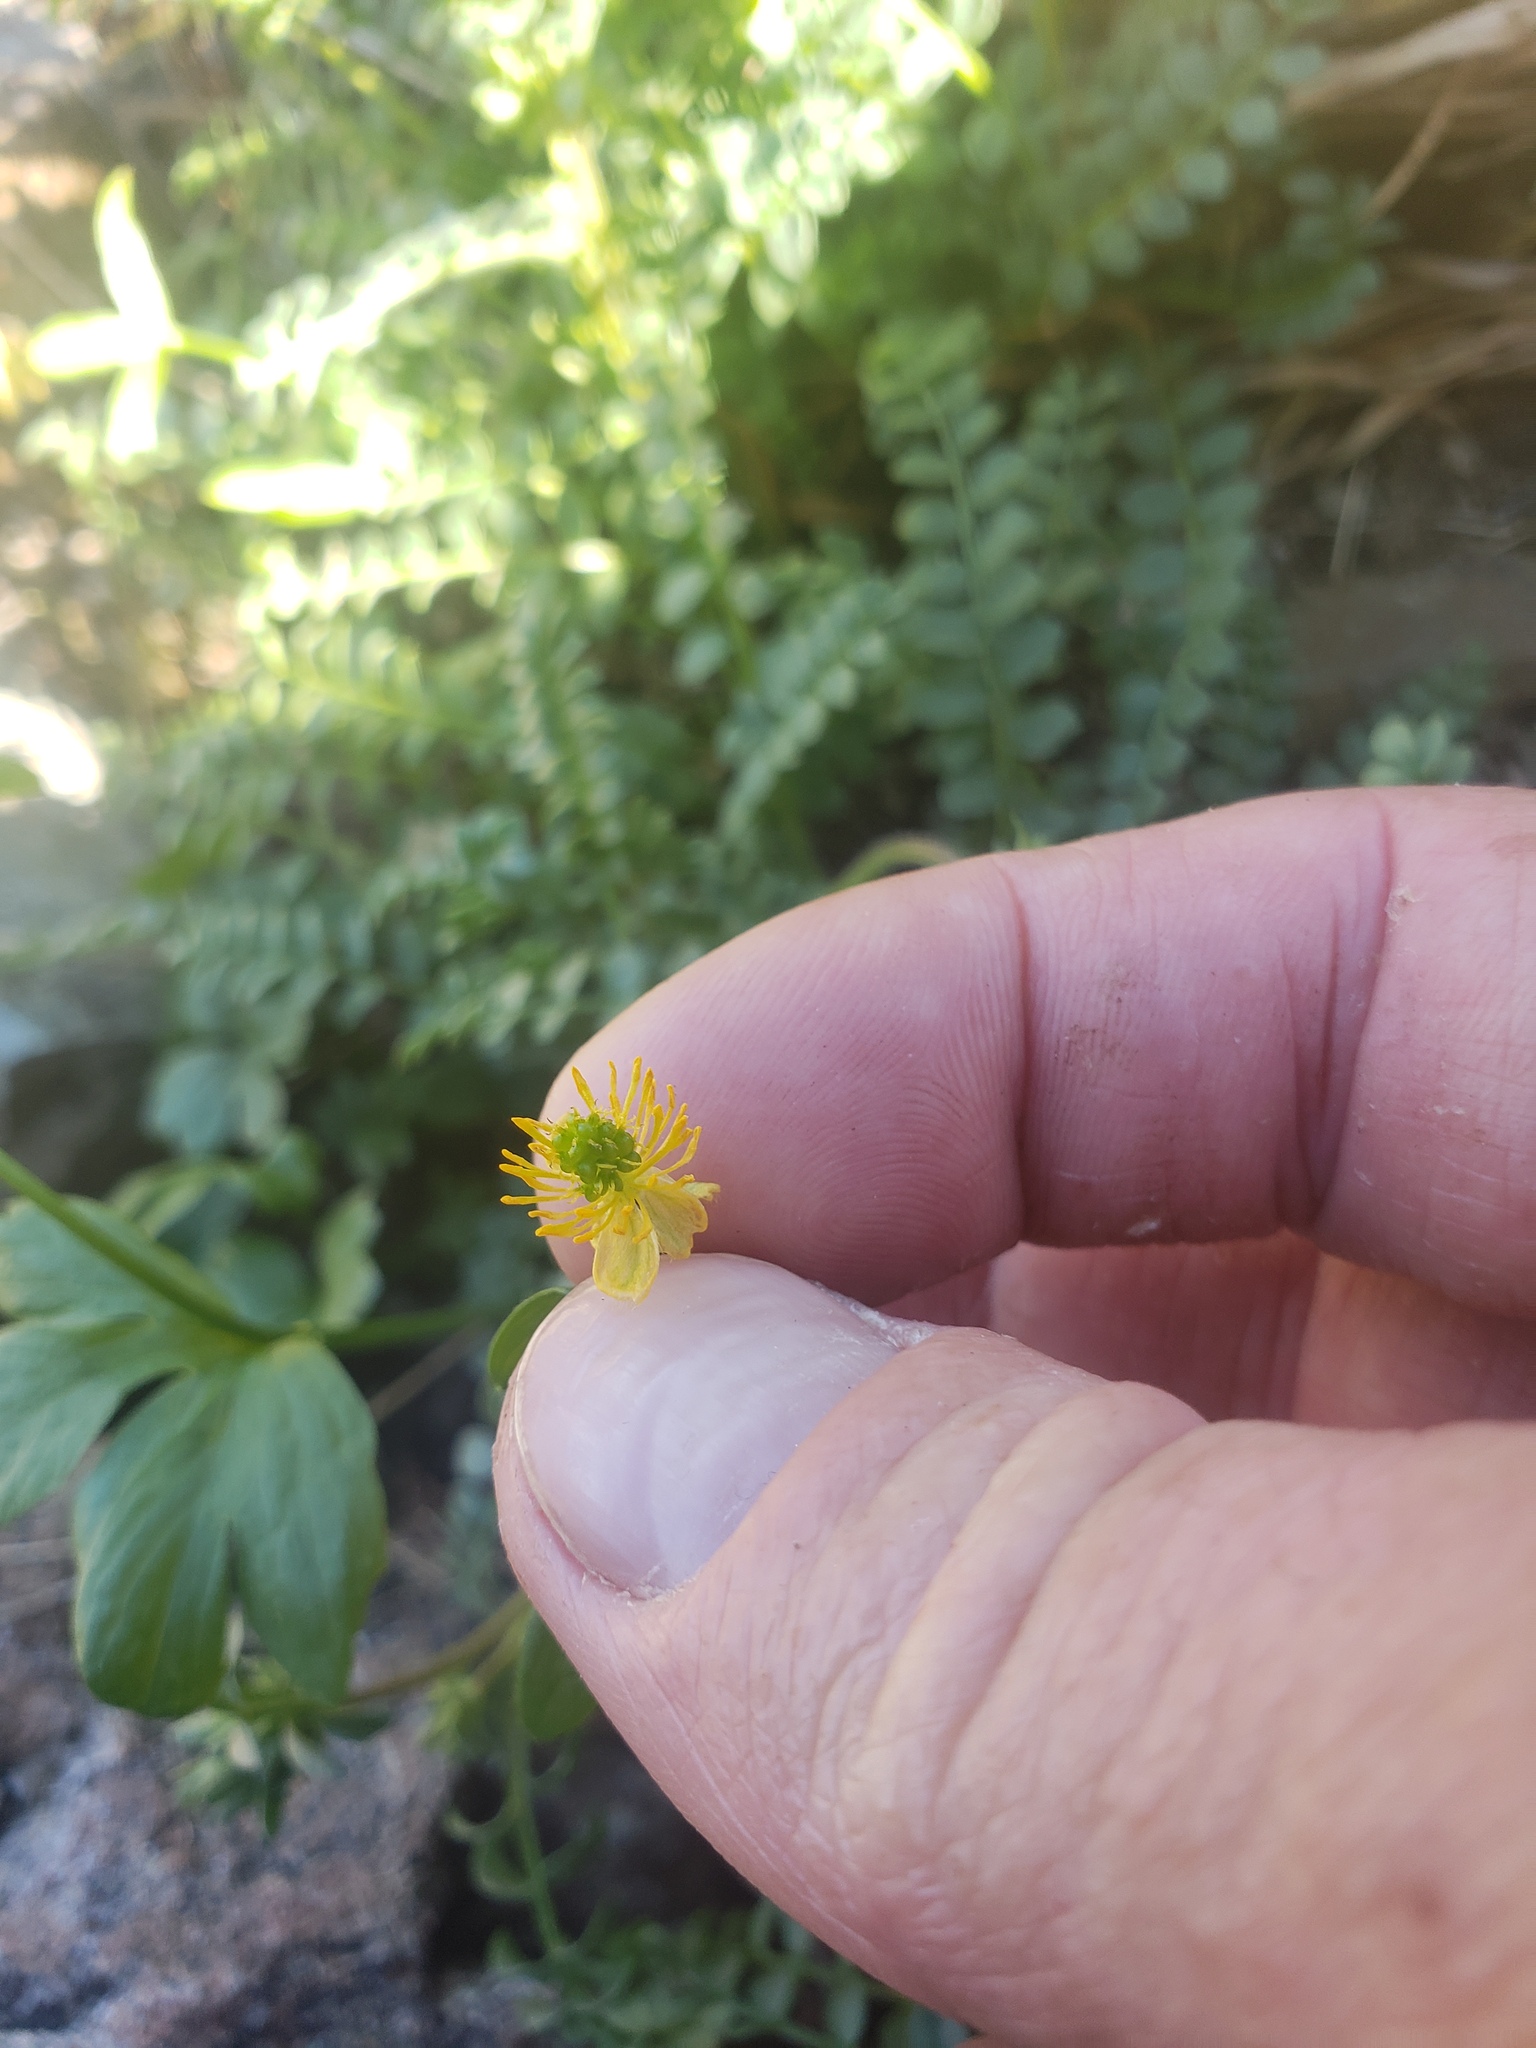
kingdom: Plantae
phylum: Tracheophyta
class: Magnoliopsida
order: Ranunculales
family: Ranunculaceae
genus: Ranunculus
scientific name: Ranunculus eschscholtzii
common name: Eschscholtz's buttercup
